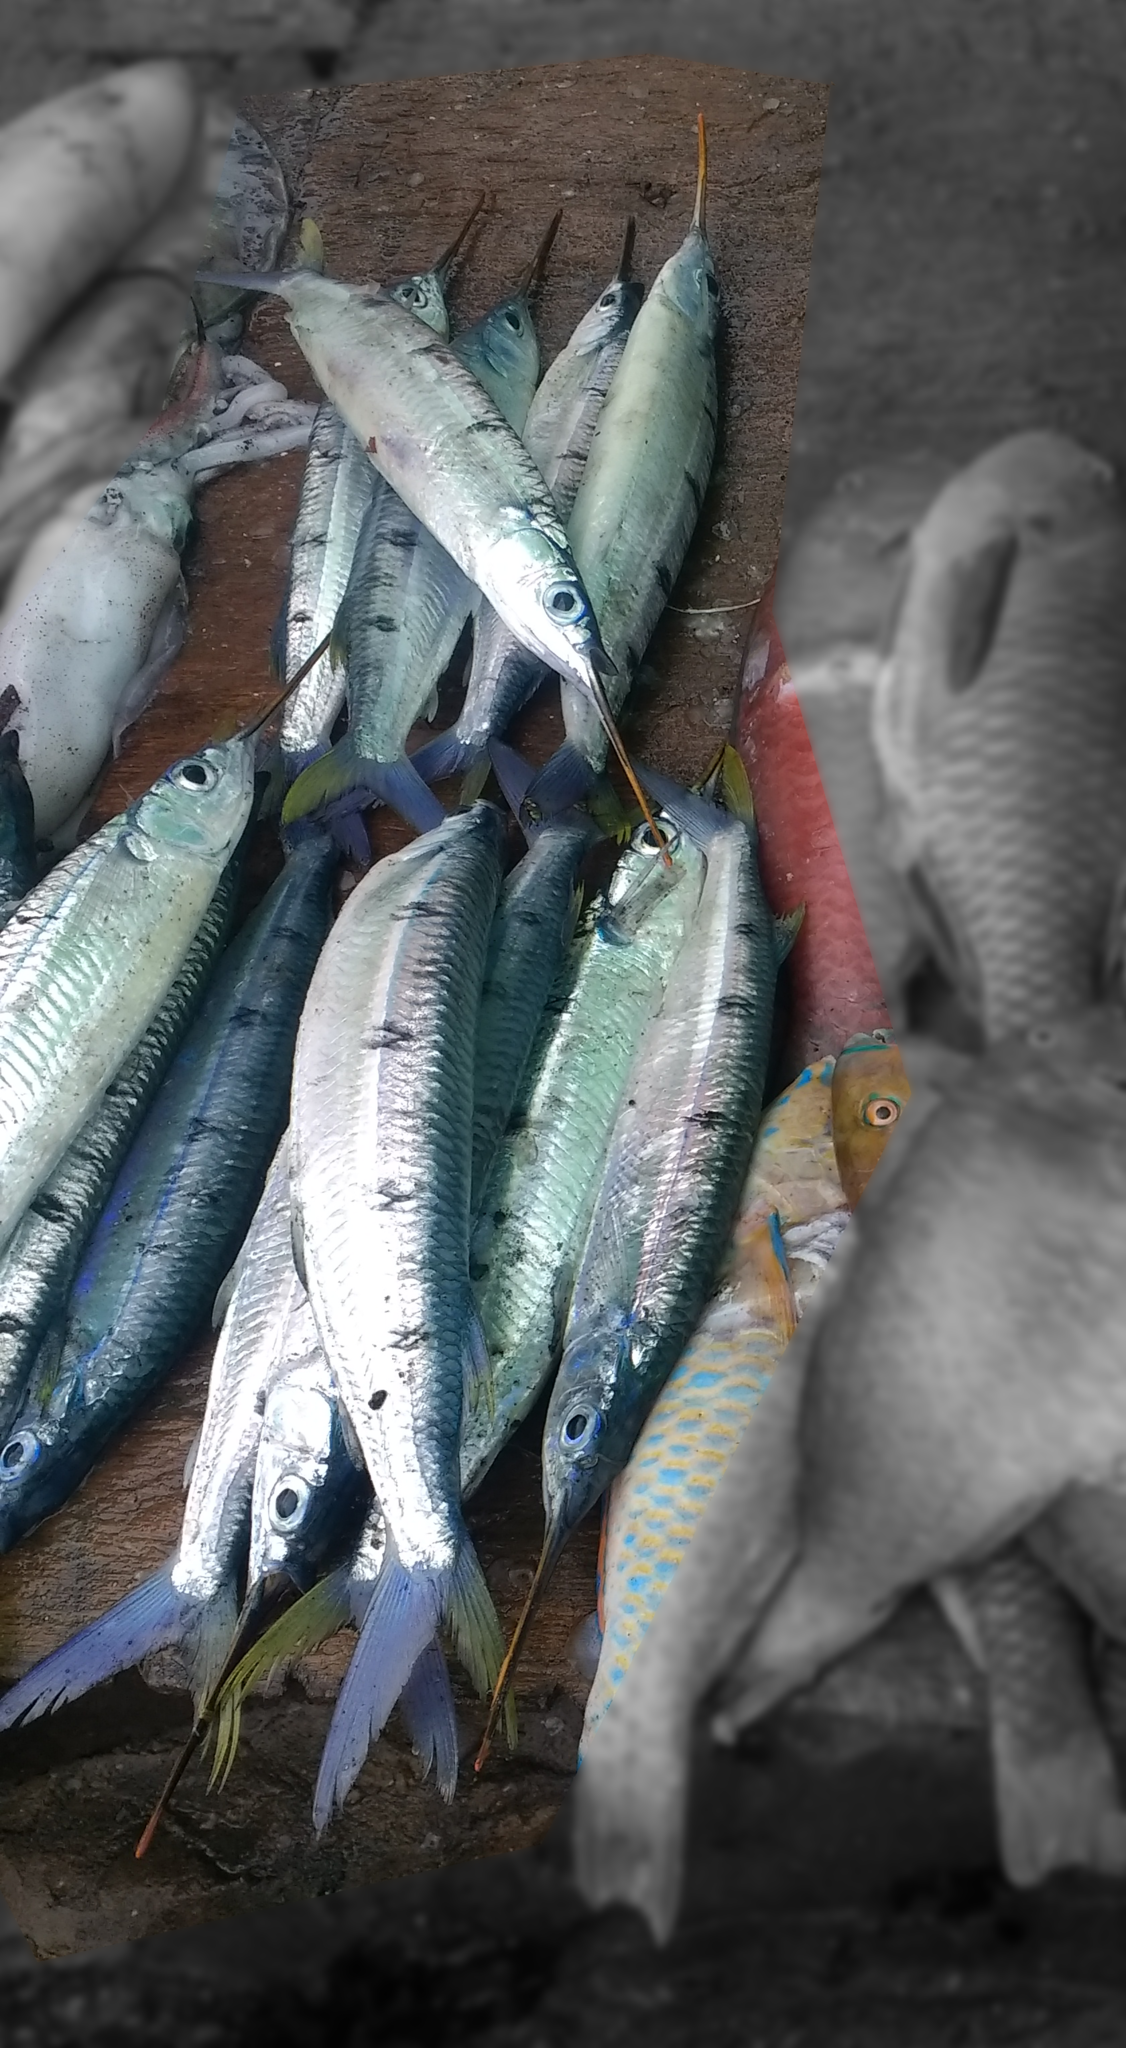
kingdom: Animalia
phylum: Chordata
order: Beloniformes
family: Hemiramphidae
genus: Hemiramphus
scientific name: Hemiramphus far
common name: Black-barred halfbeak
